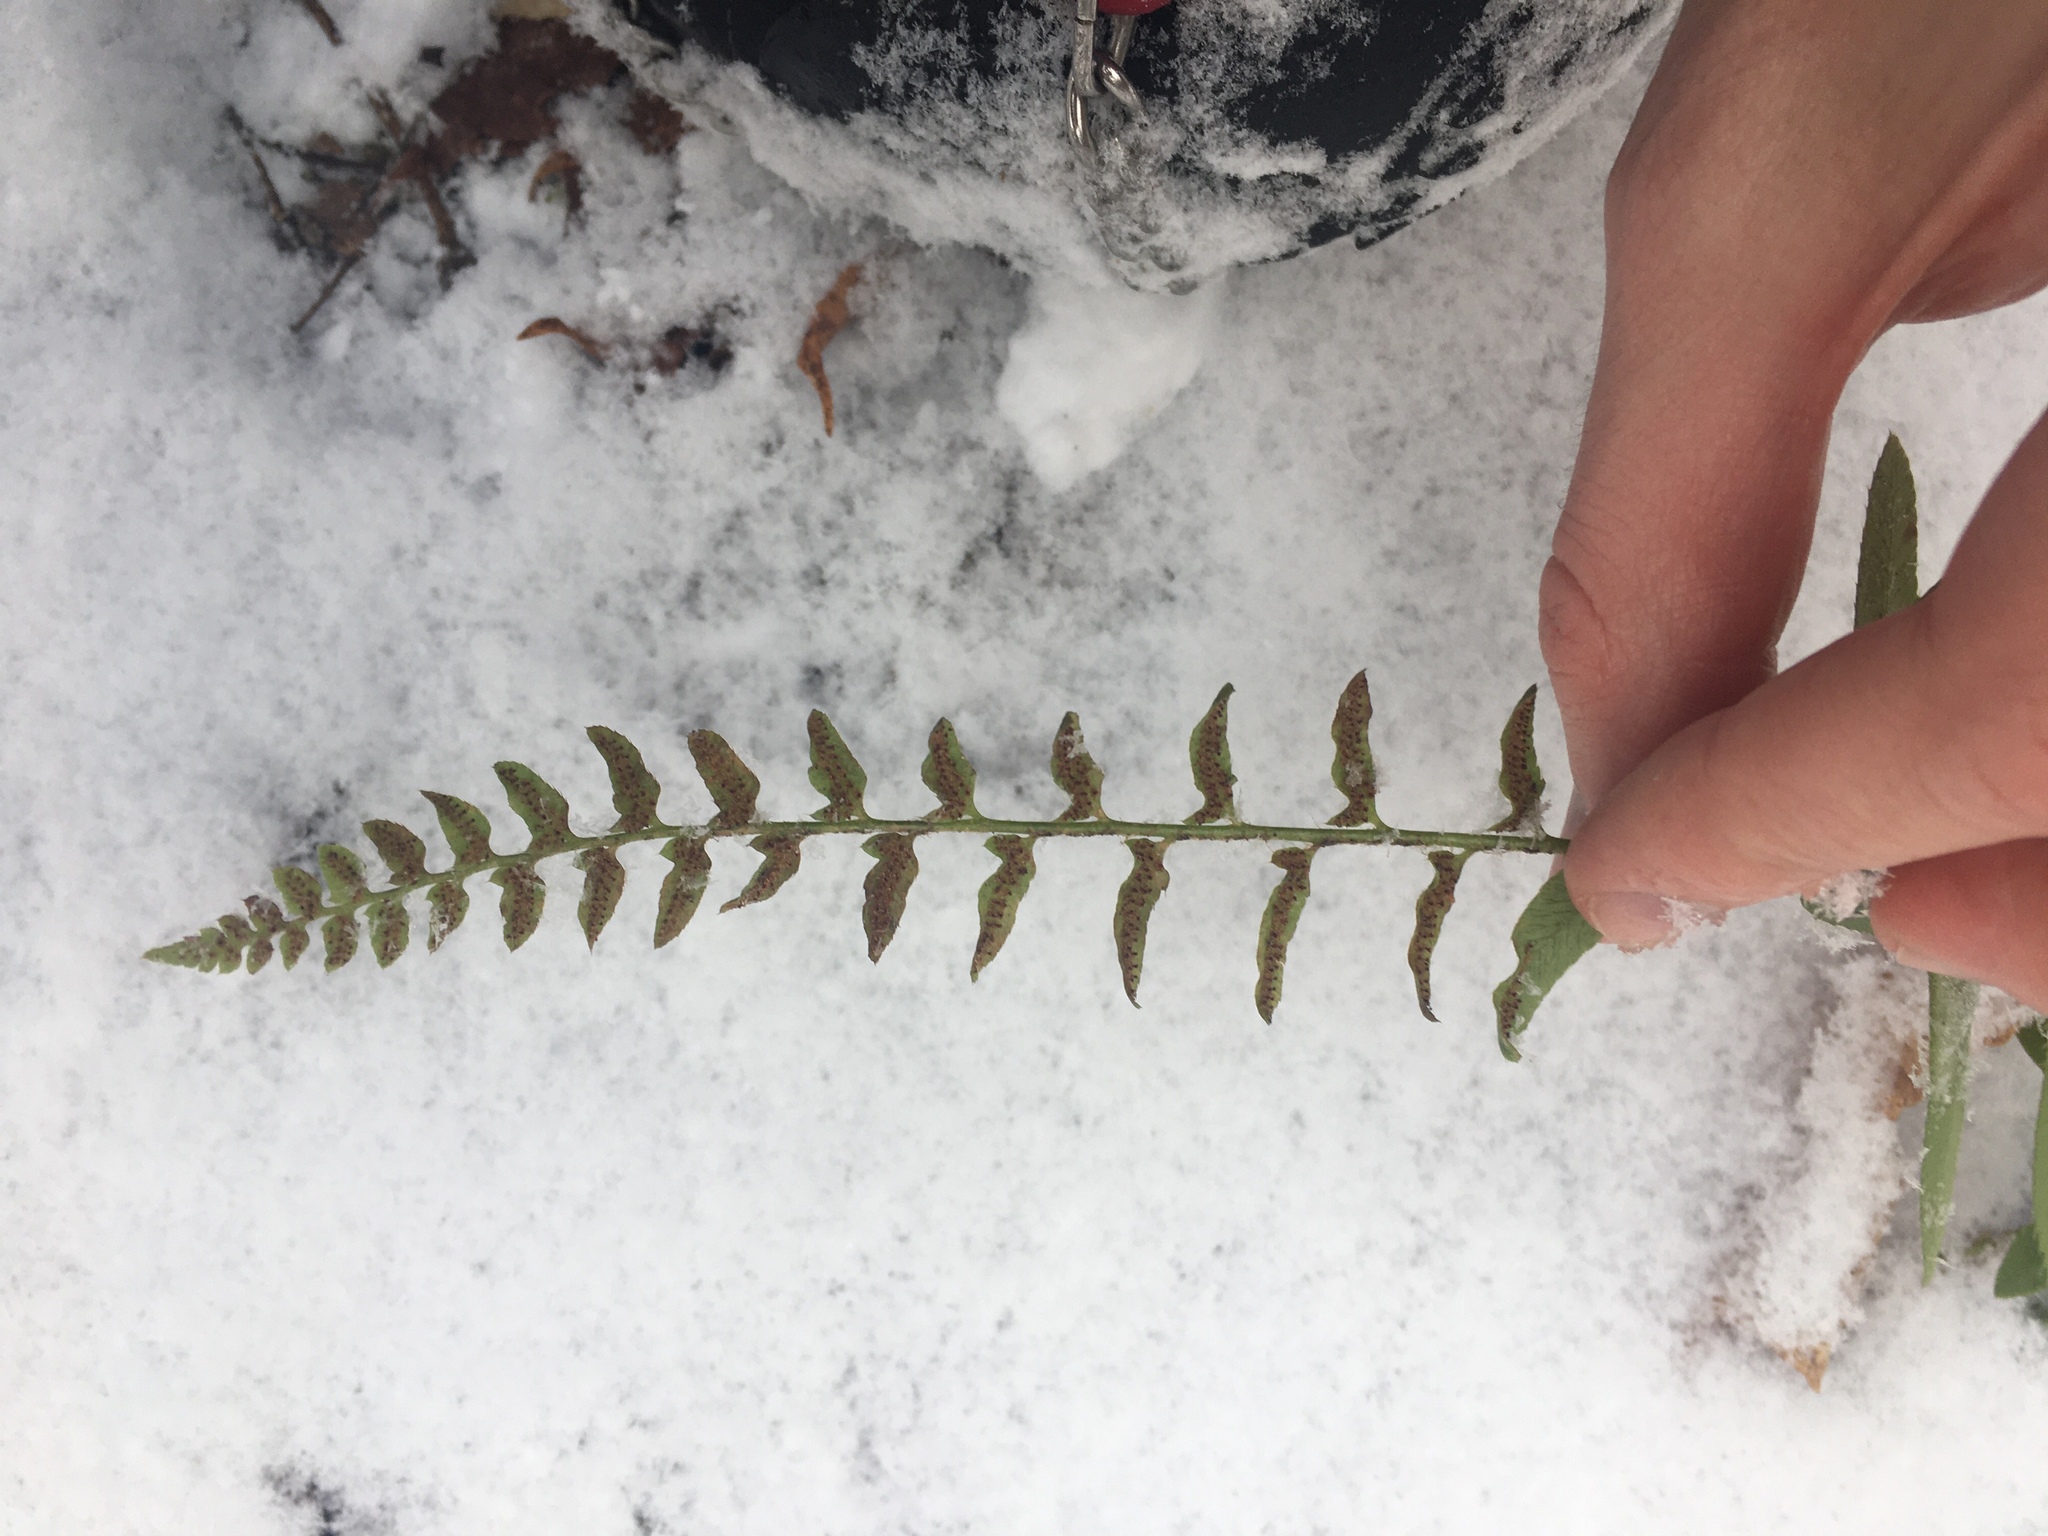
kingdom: Plantae
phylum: Tracheophyta
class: Polypodiopsida
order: Polypodiales
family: Dryopteridaceae
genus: Polystichum
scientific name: Polystichum acrostichoides
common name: Christmas fern
